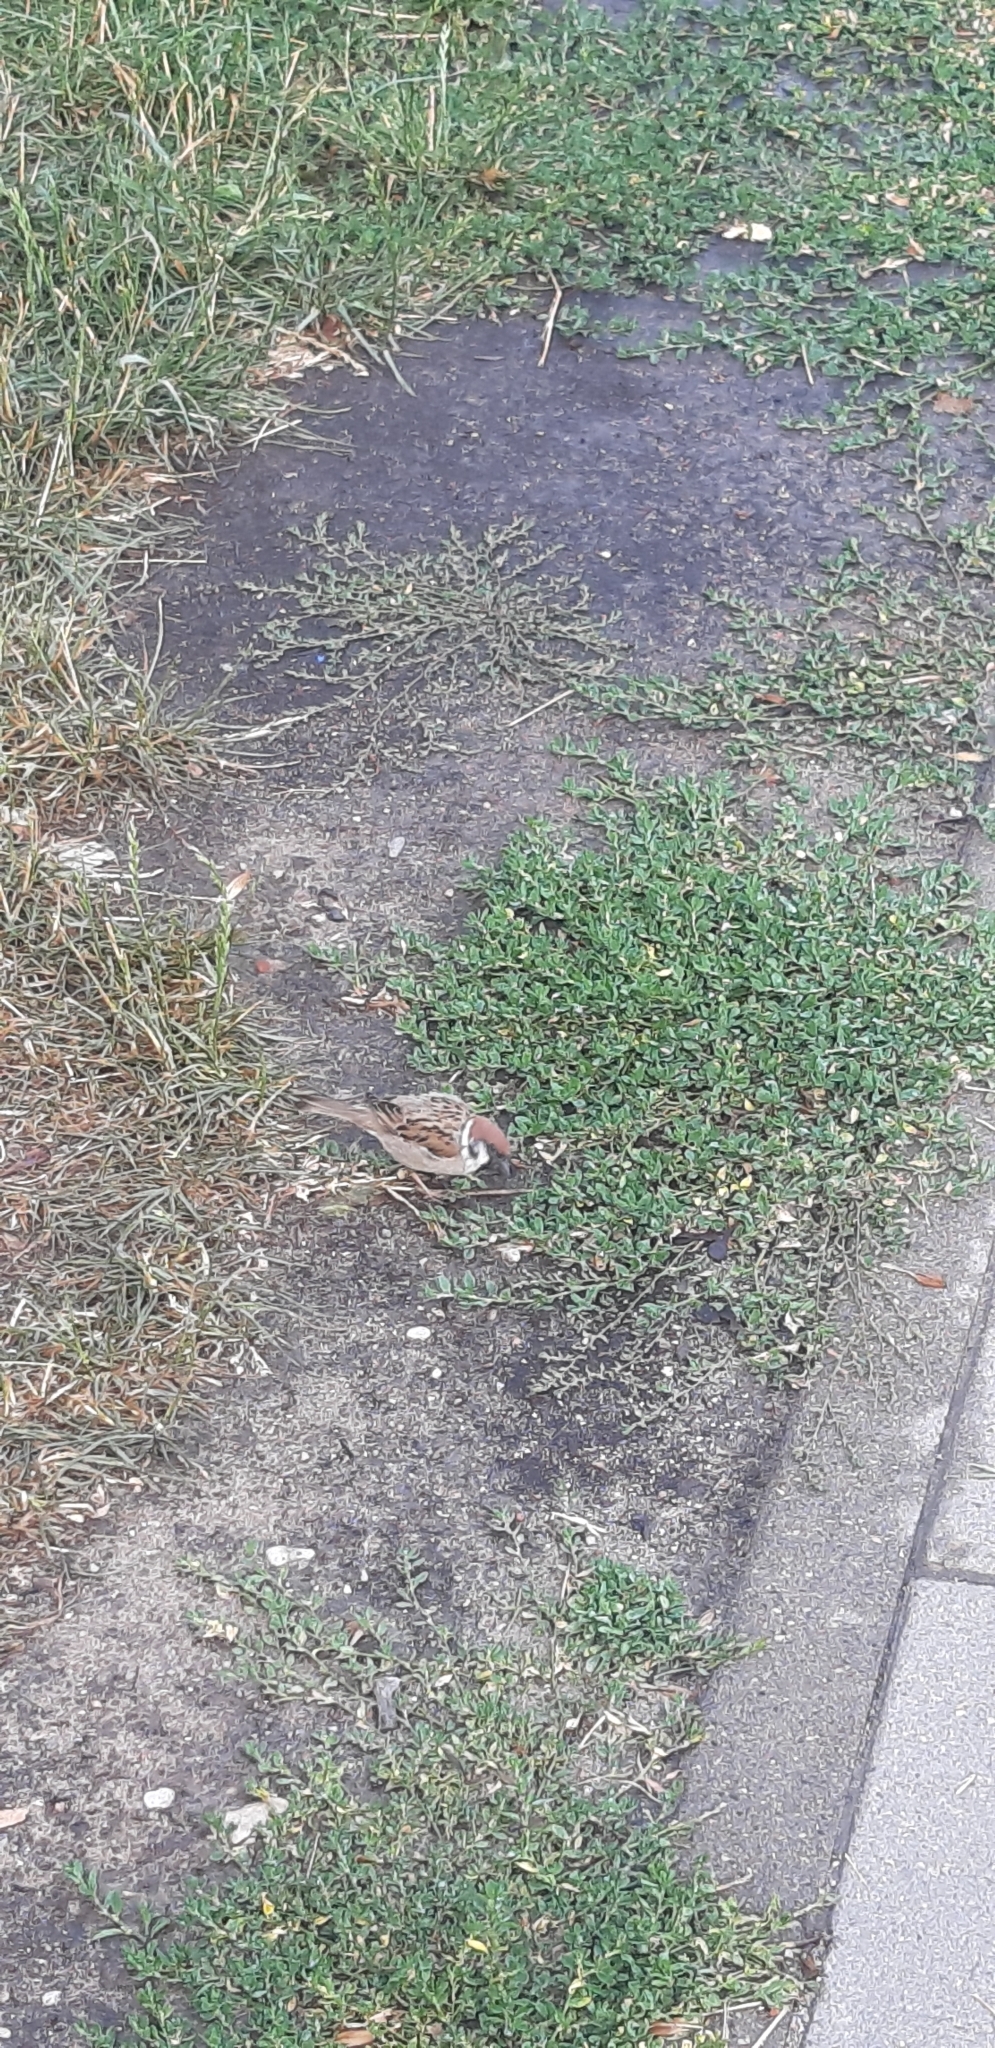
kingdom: Animalia
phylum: Chordata
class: Aves
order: Passeriformes
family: Passeridae
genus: Passer
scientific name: Passer montanus
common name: Eurasian tree sparrow
